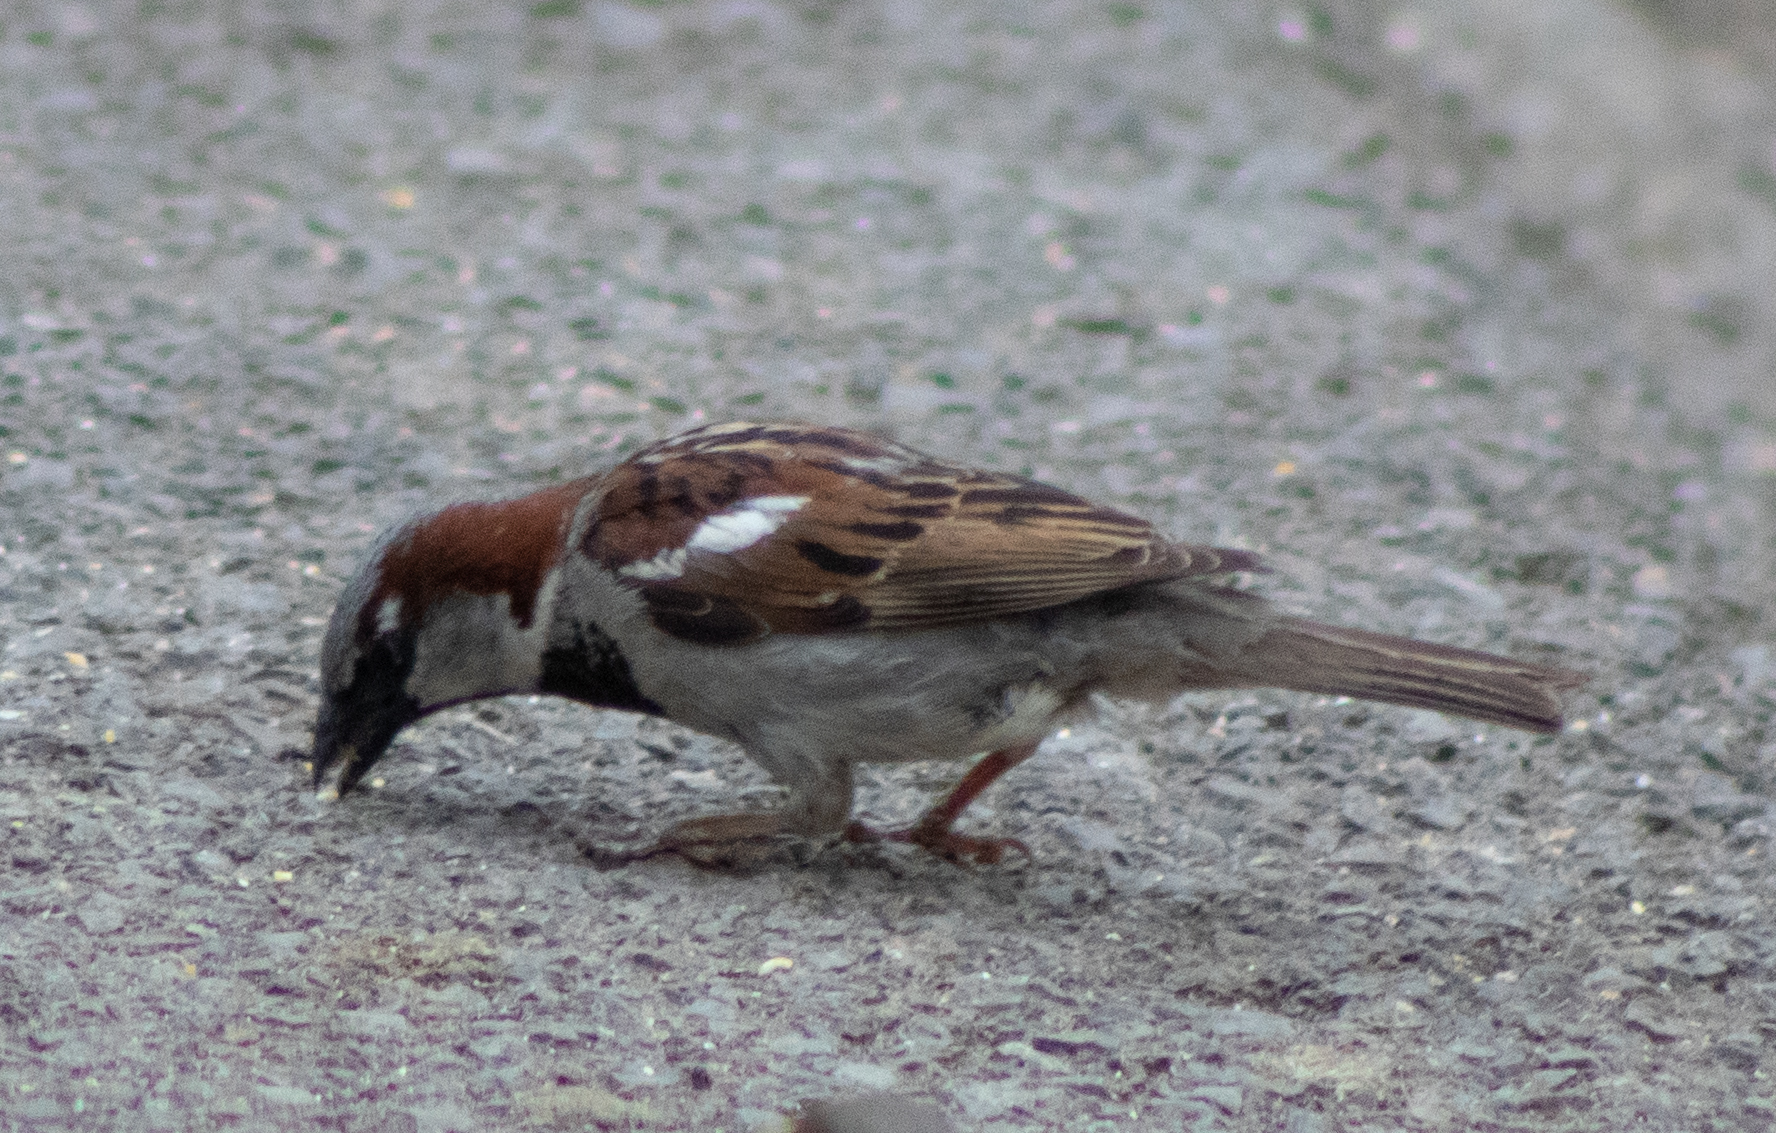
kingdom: Animalia
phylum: Chordata
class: Aves
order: Passeriformes
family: Passeridae
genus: Passer
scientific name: Passer domesticus
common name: House sparrow
